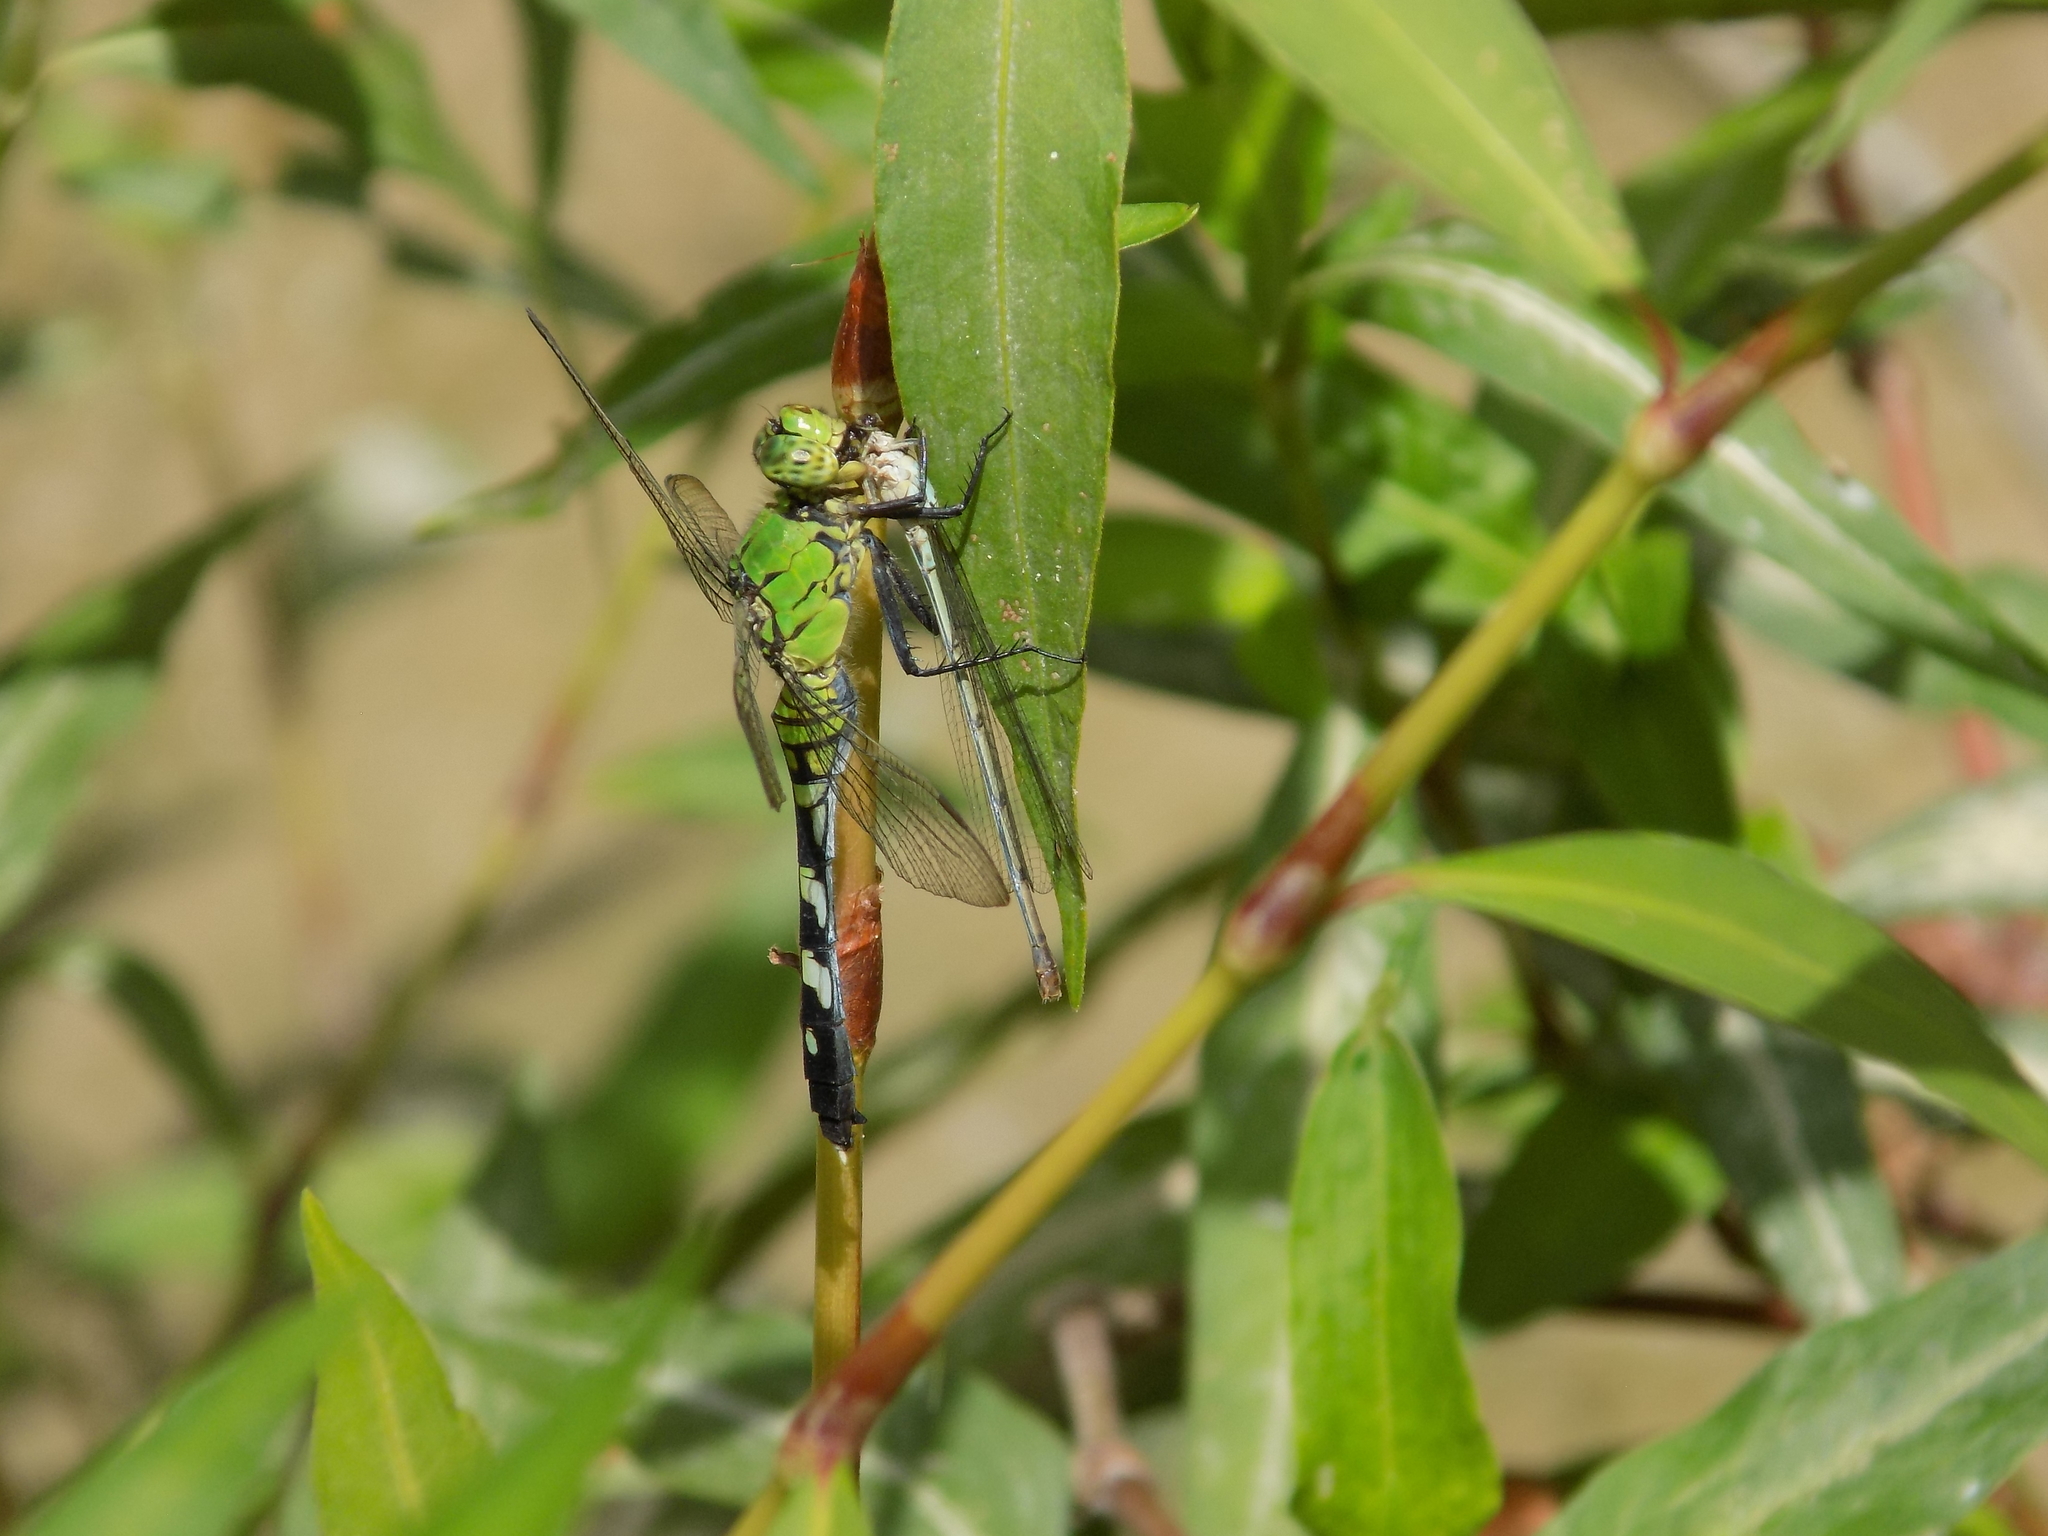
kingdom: Animalia
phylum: Arthropoda
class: Insecta
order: Odonata
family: Libellulidae
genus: Erythemis
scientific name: Erythemis simplicicollis
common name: Eastern pondhawk
